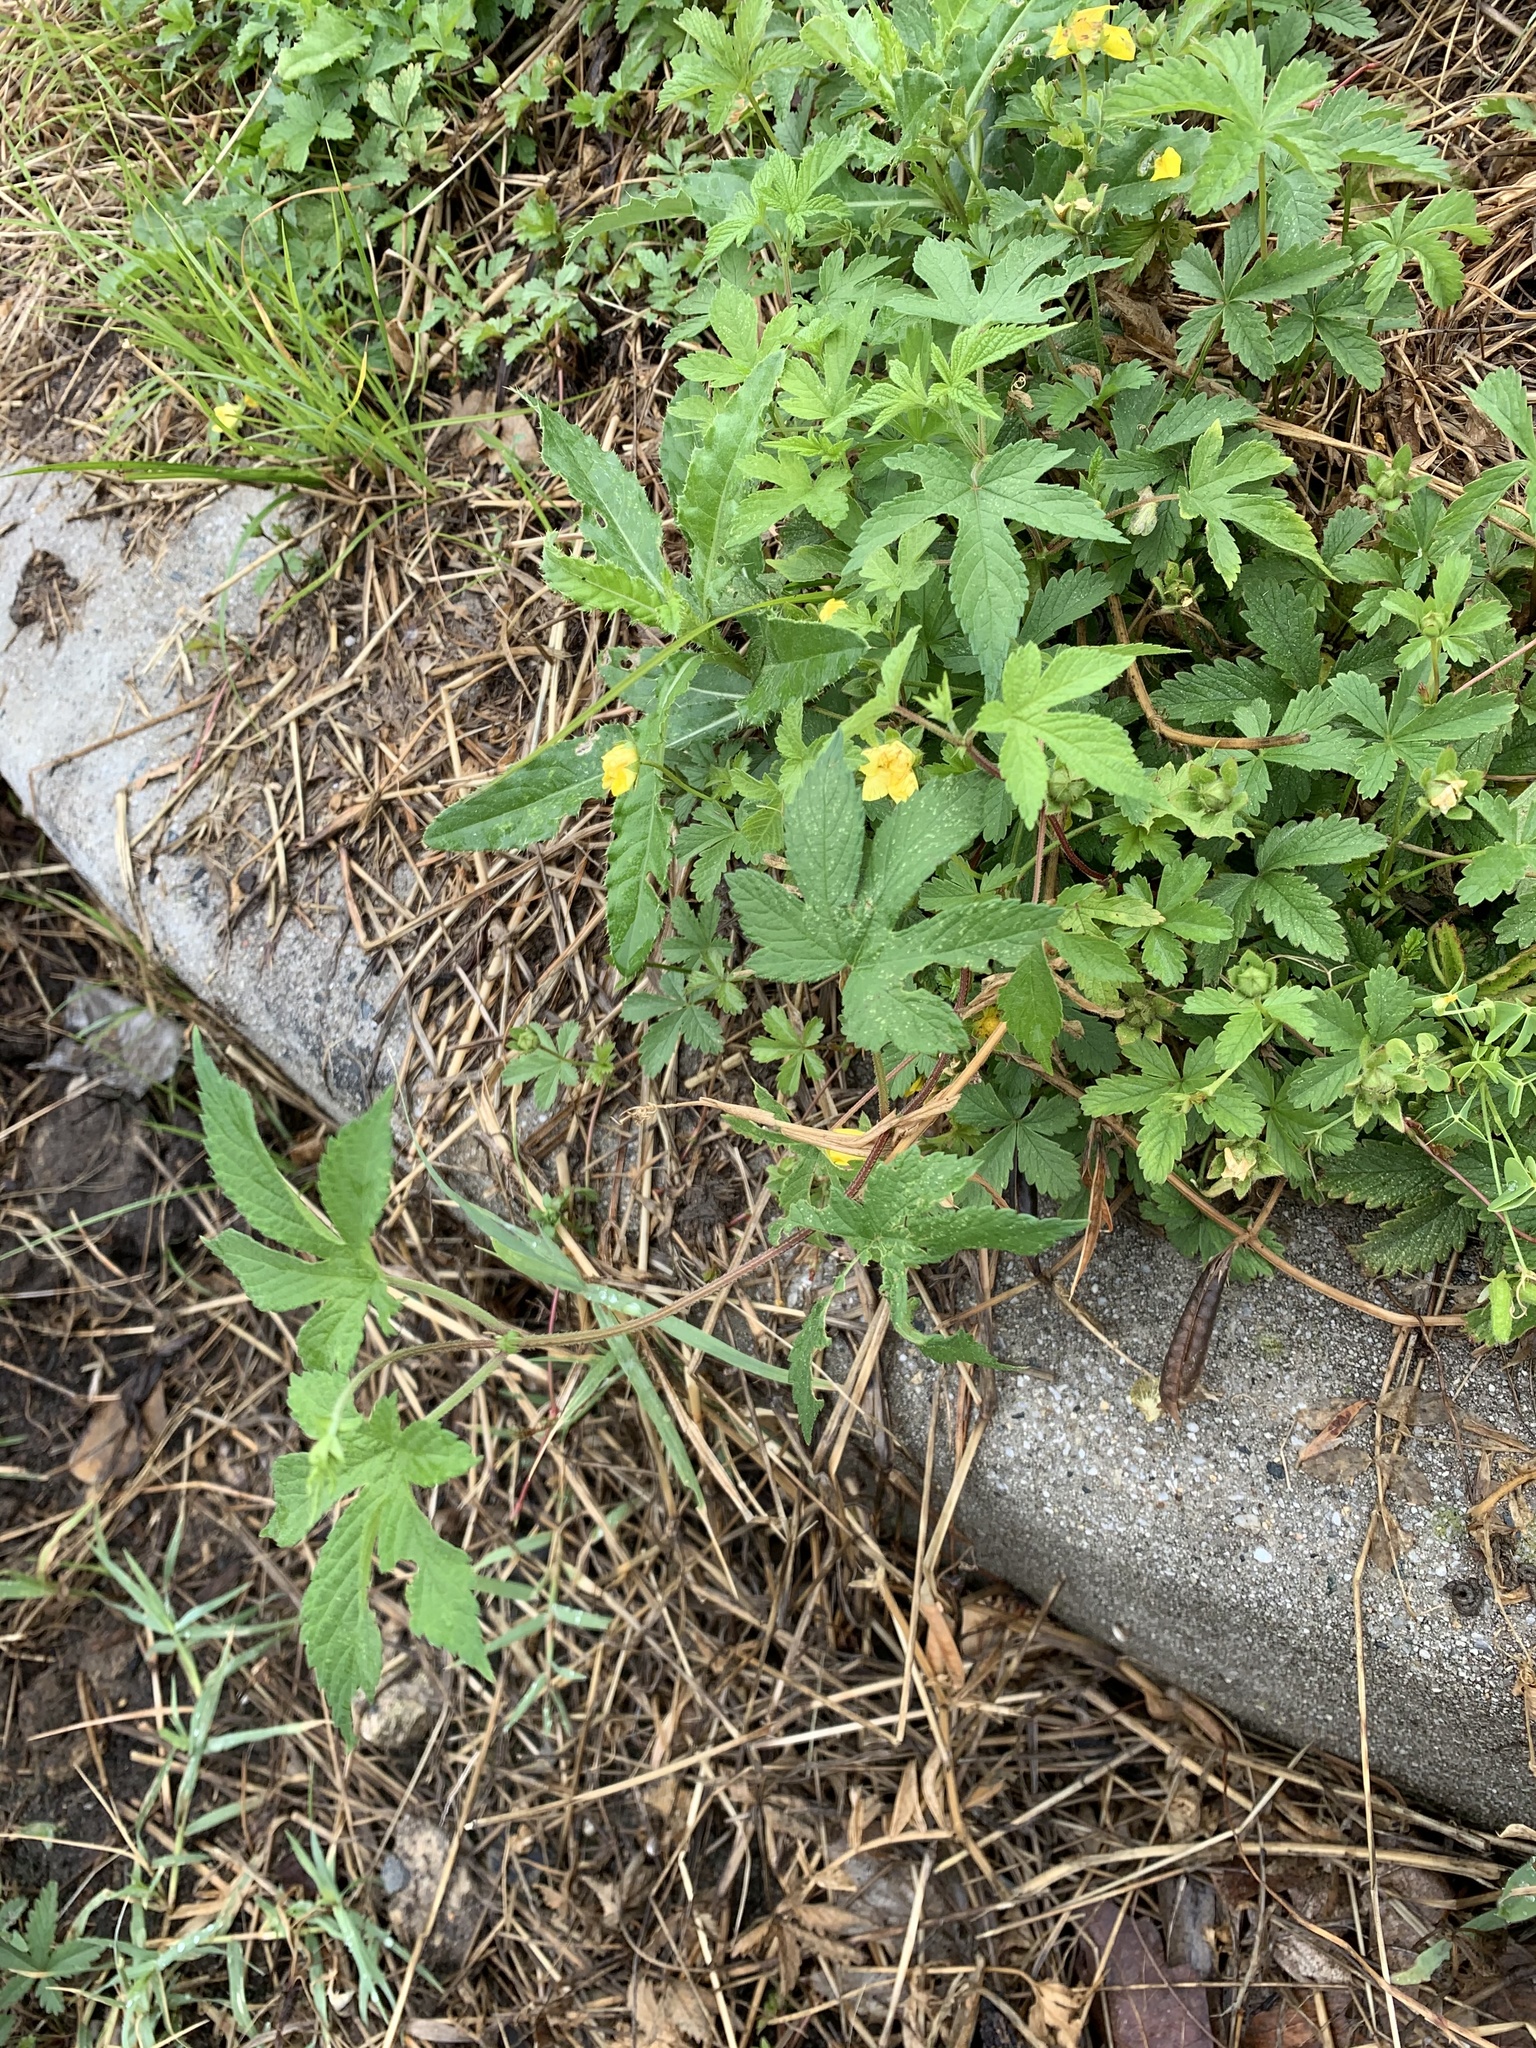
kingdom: Plantae
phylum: Tracheophyta
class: Magnoliopsida
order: Rosales
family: Cannabaceae
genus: Humulus
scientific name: Humulus scandens
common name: Japanese hop
